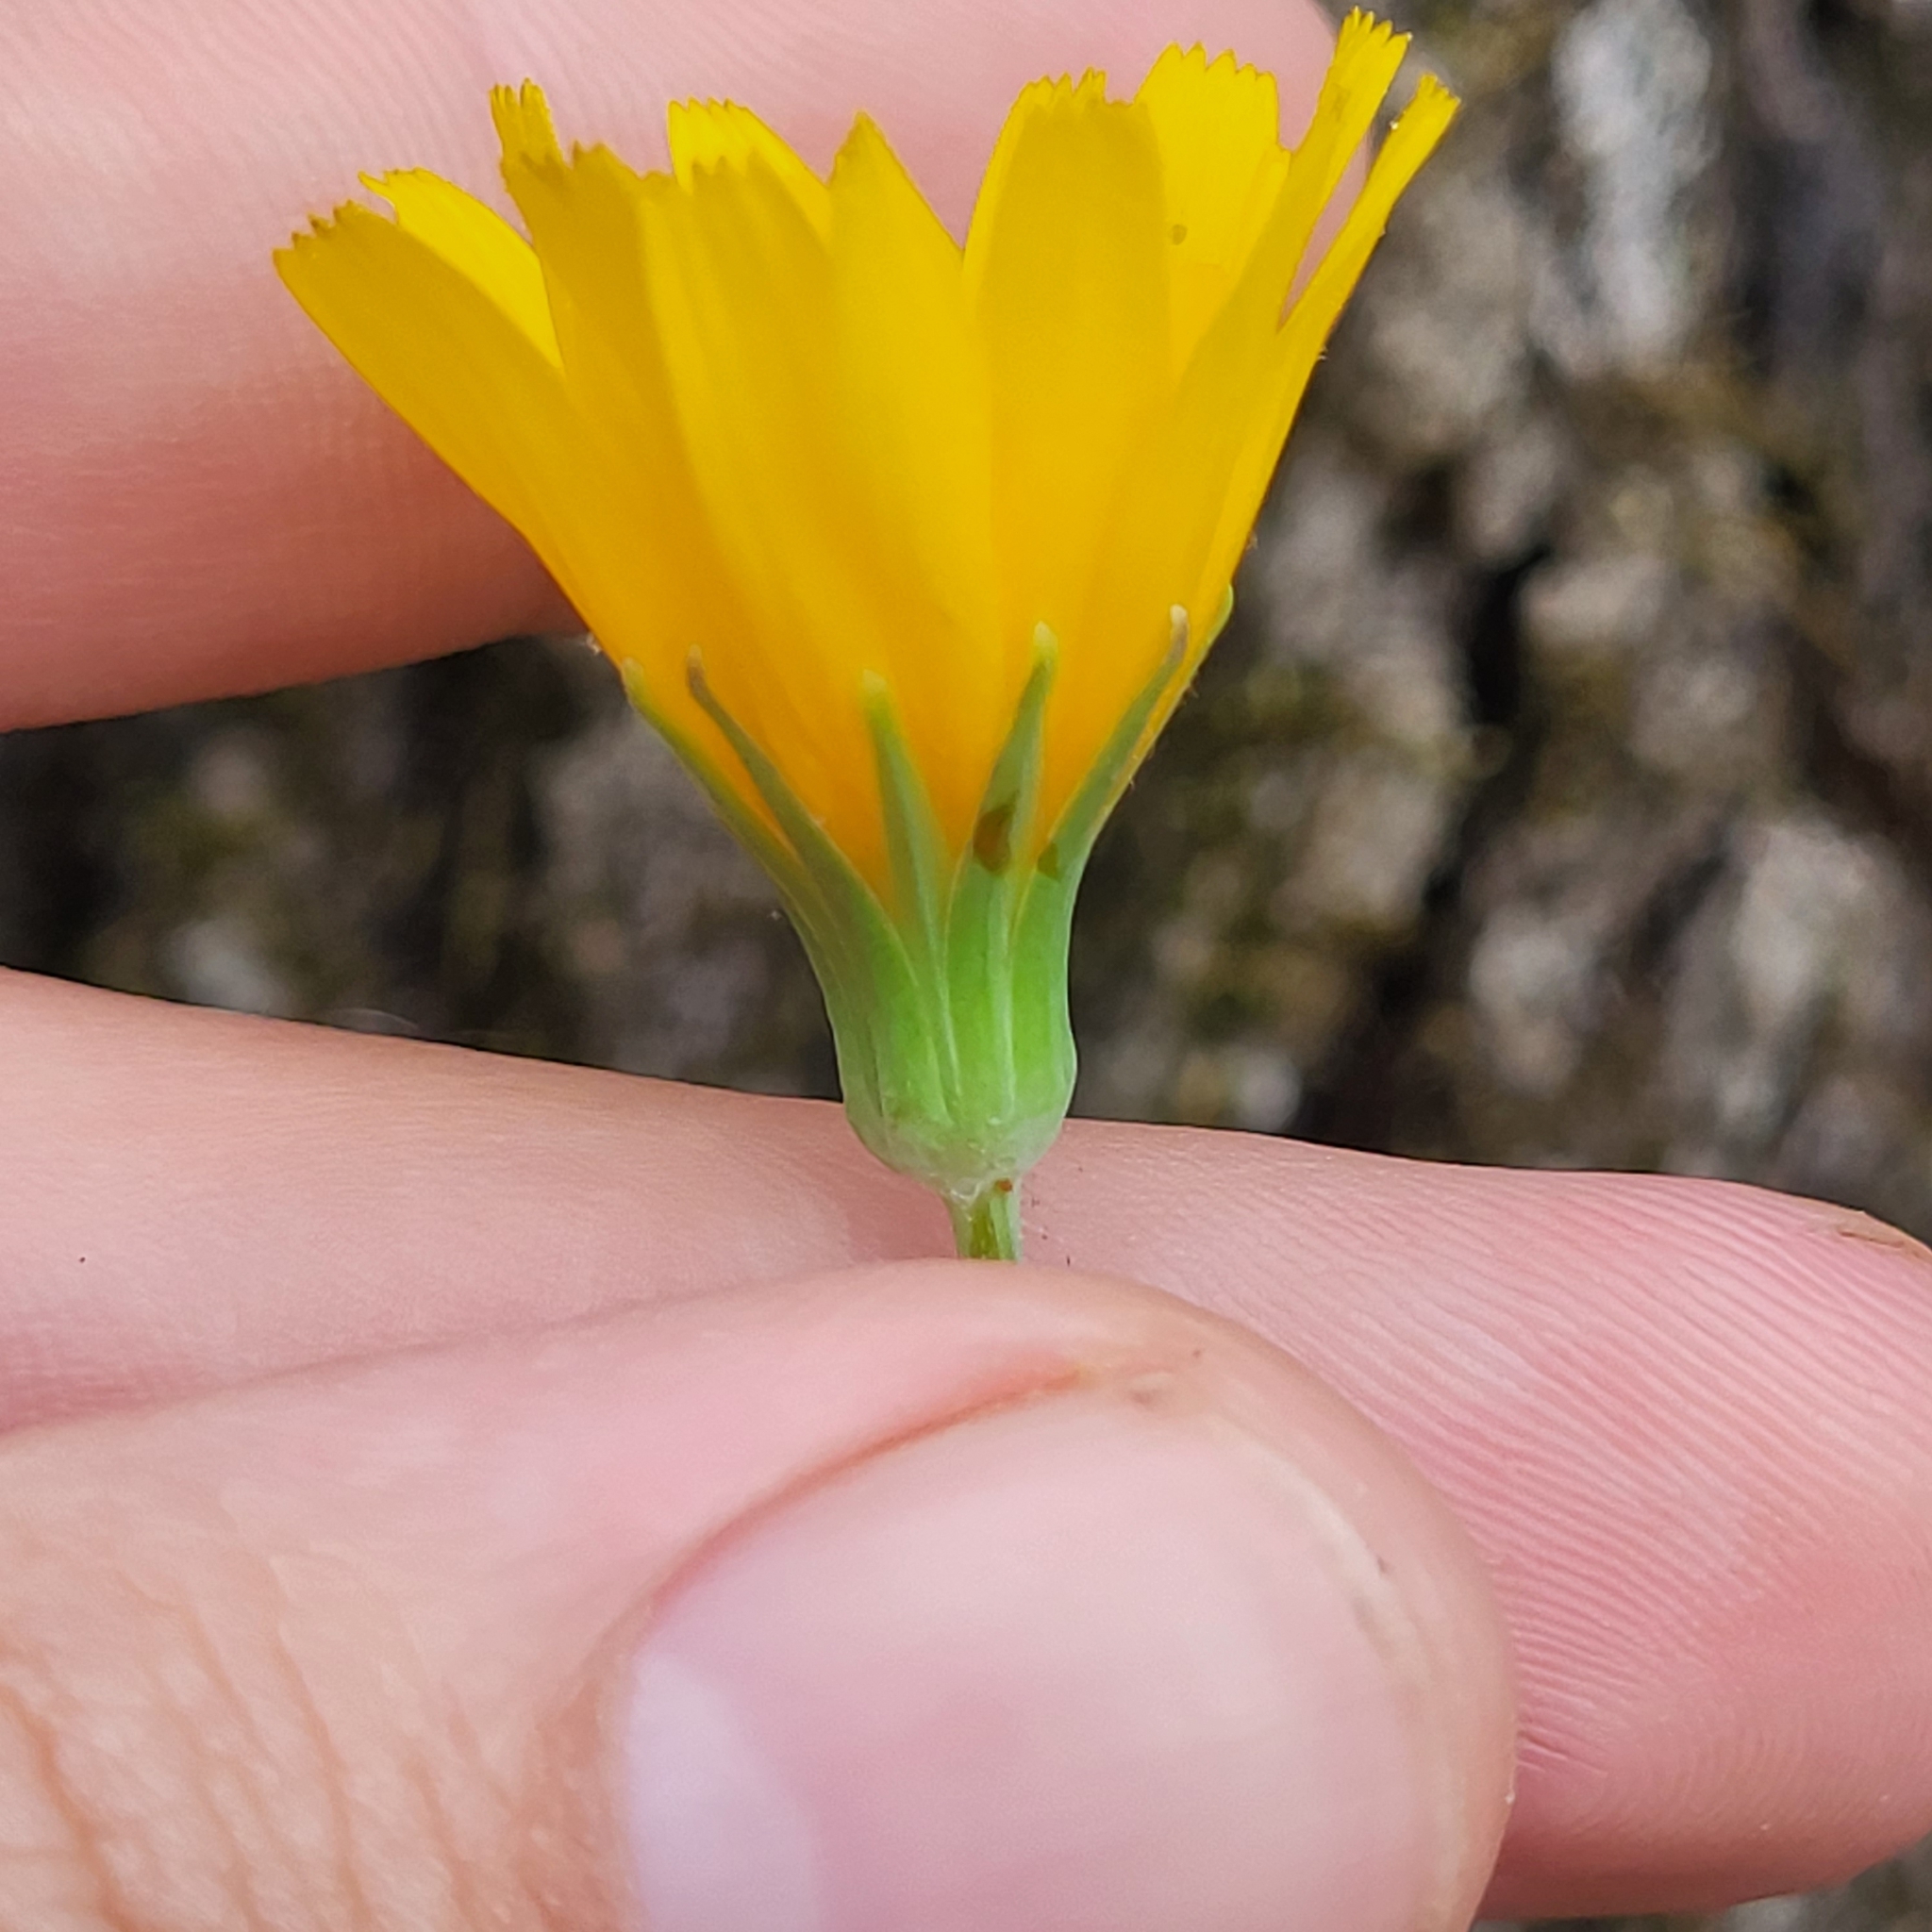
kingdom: Plantae
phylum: Tracheophyta
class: Magnoliopsida
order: Asterales
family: Asteraceae
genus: Krigia
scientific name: Krigia dandelion
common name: Colonial dwarf-dandelion
